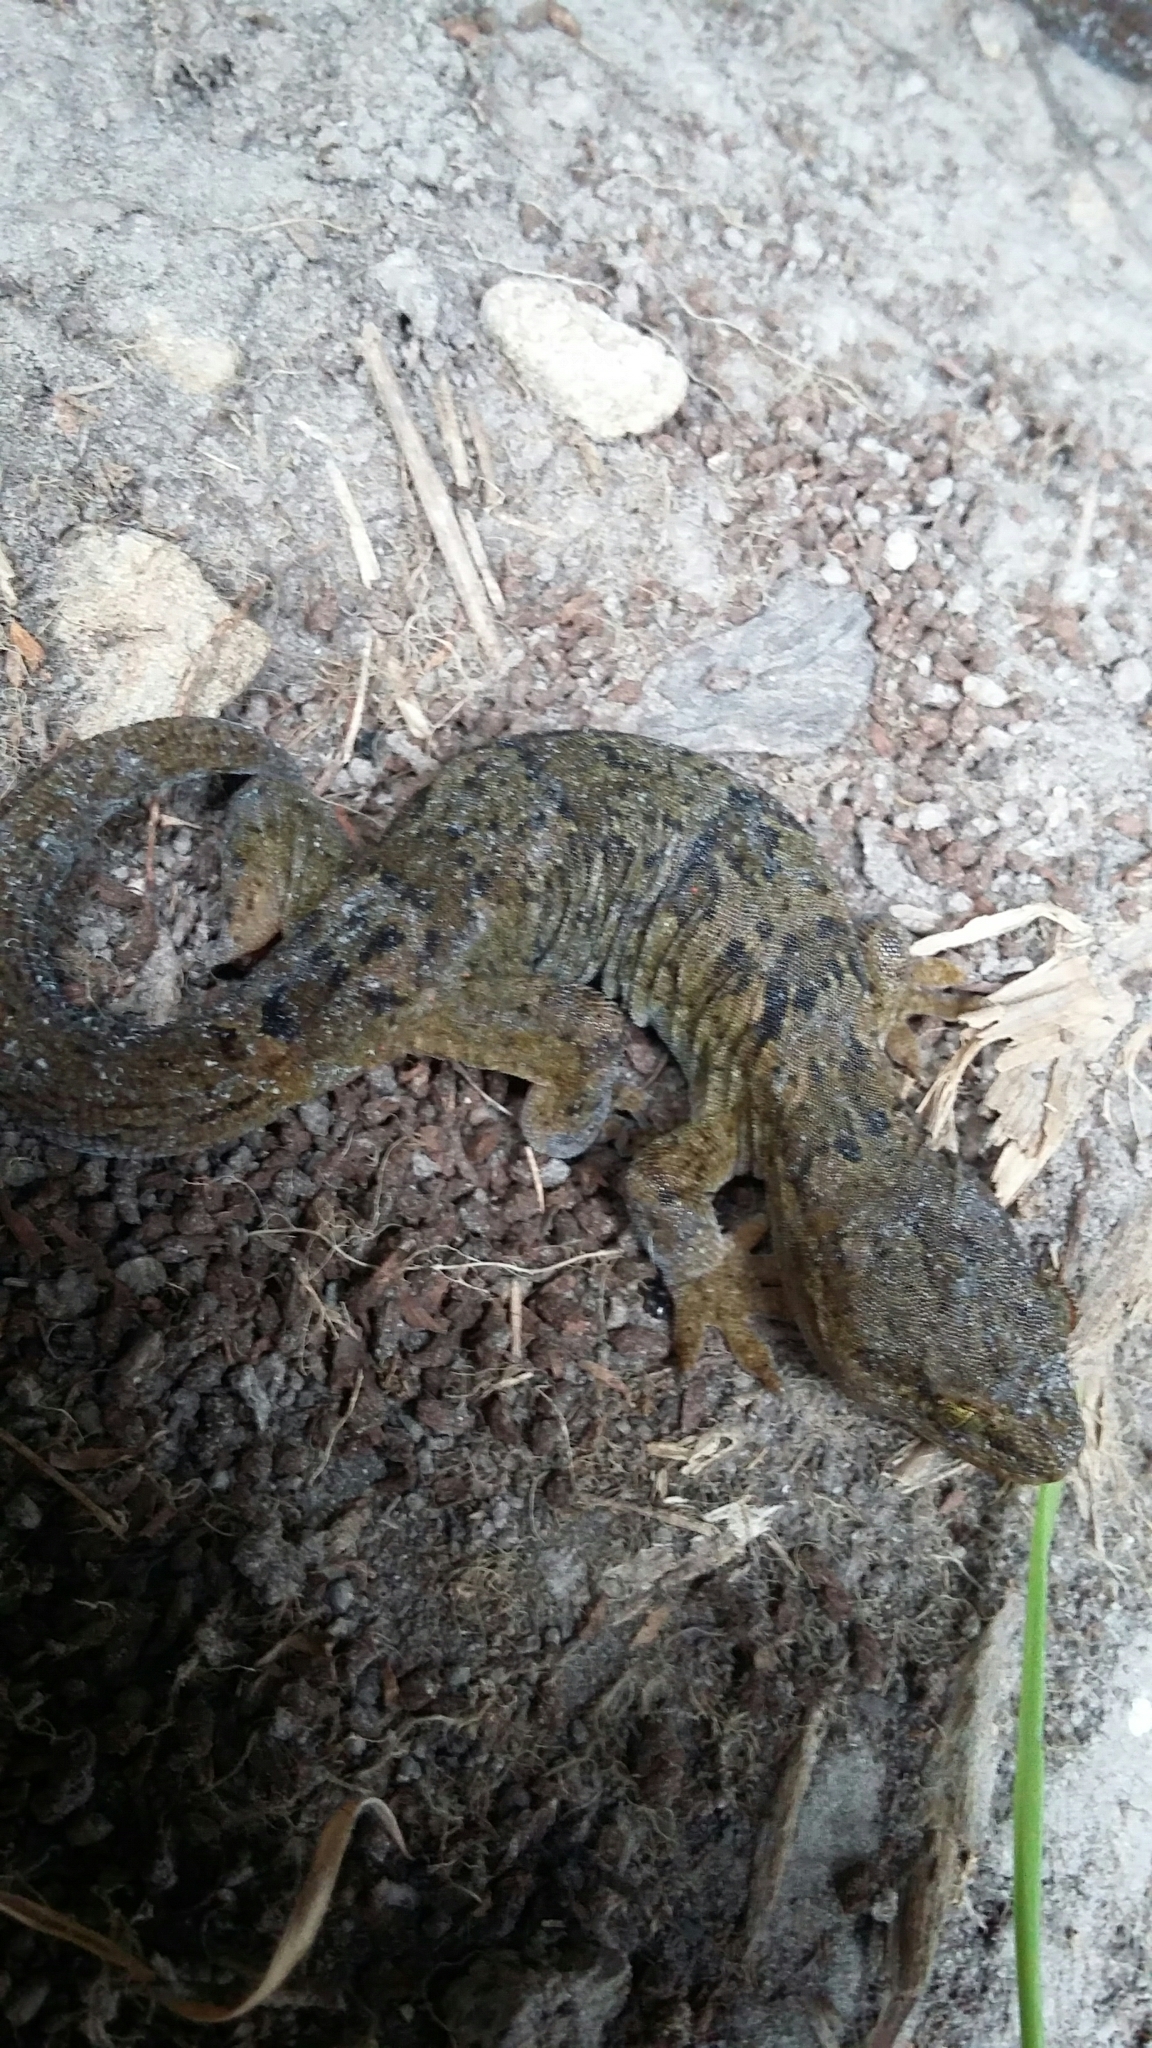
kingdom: Animalia
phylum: Chordata
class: Squamata
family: Diplodactylidae
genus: Woodworthia
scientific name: Woodworthia maculata
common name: Raukawa gecko
